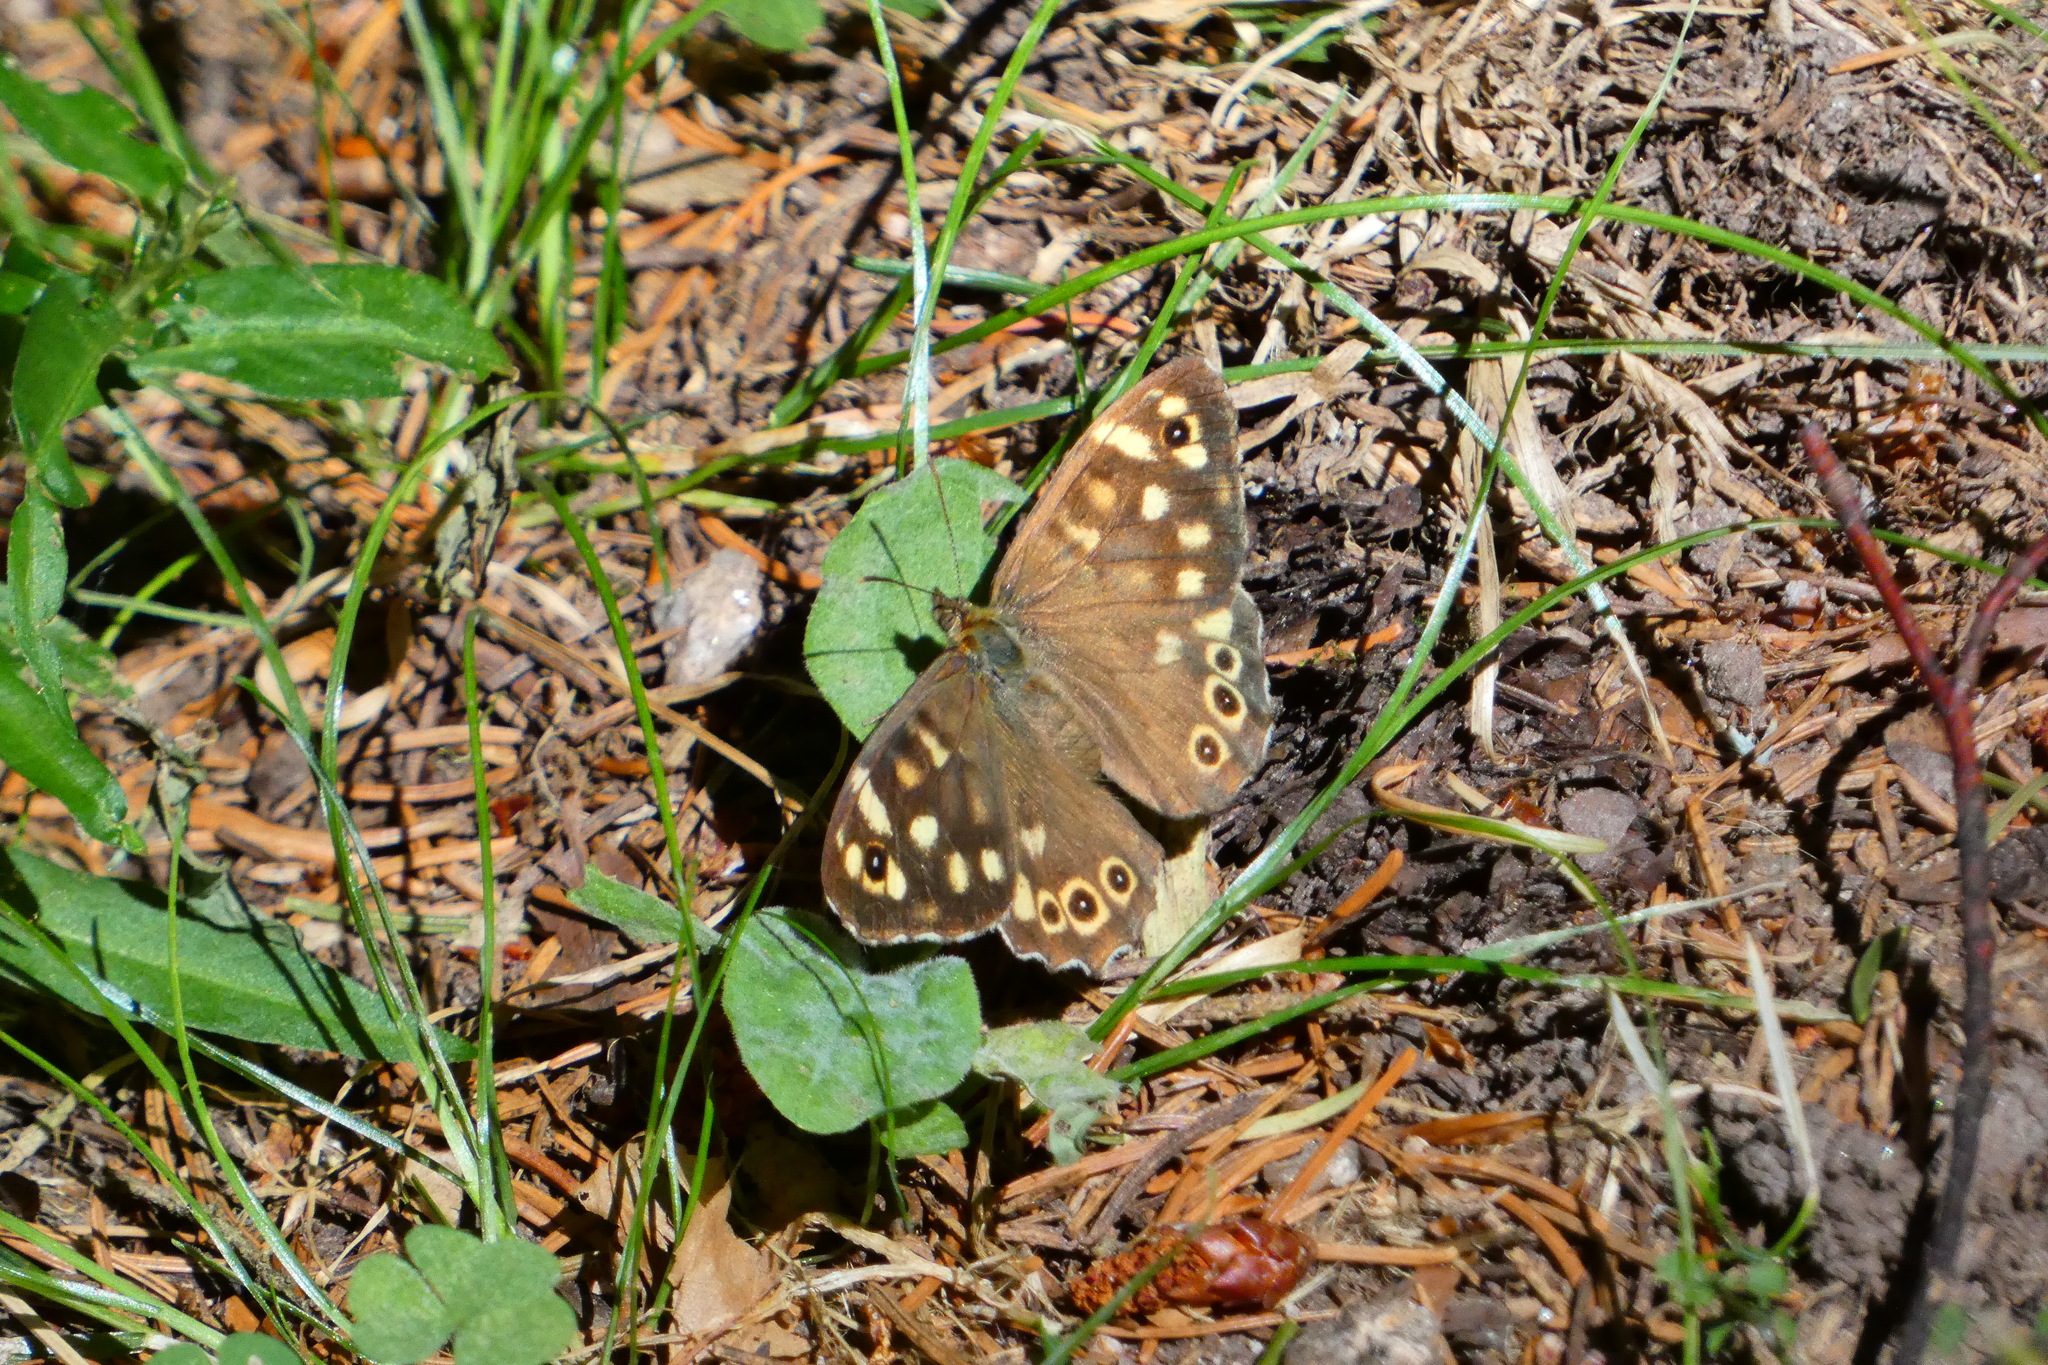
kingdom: Animalia
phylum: Arthropoda
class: Insecta
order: Lepidoptera
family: Nymphalidae
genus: Pararge
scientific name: Pararge aegeria
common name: Speckled wood
